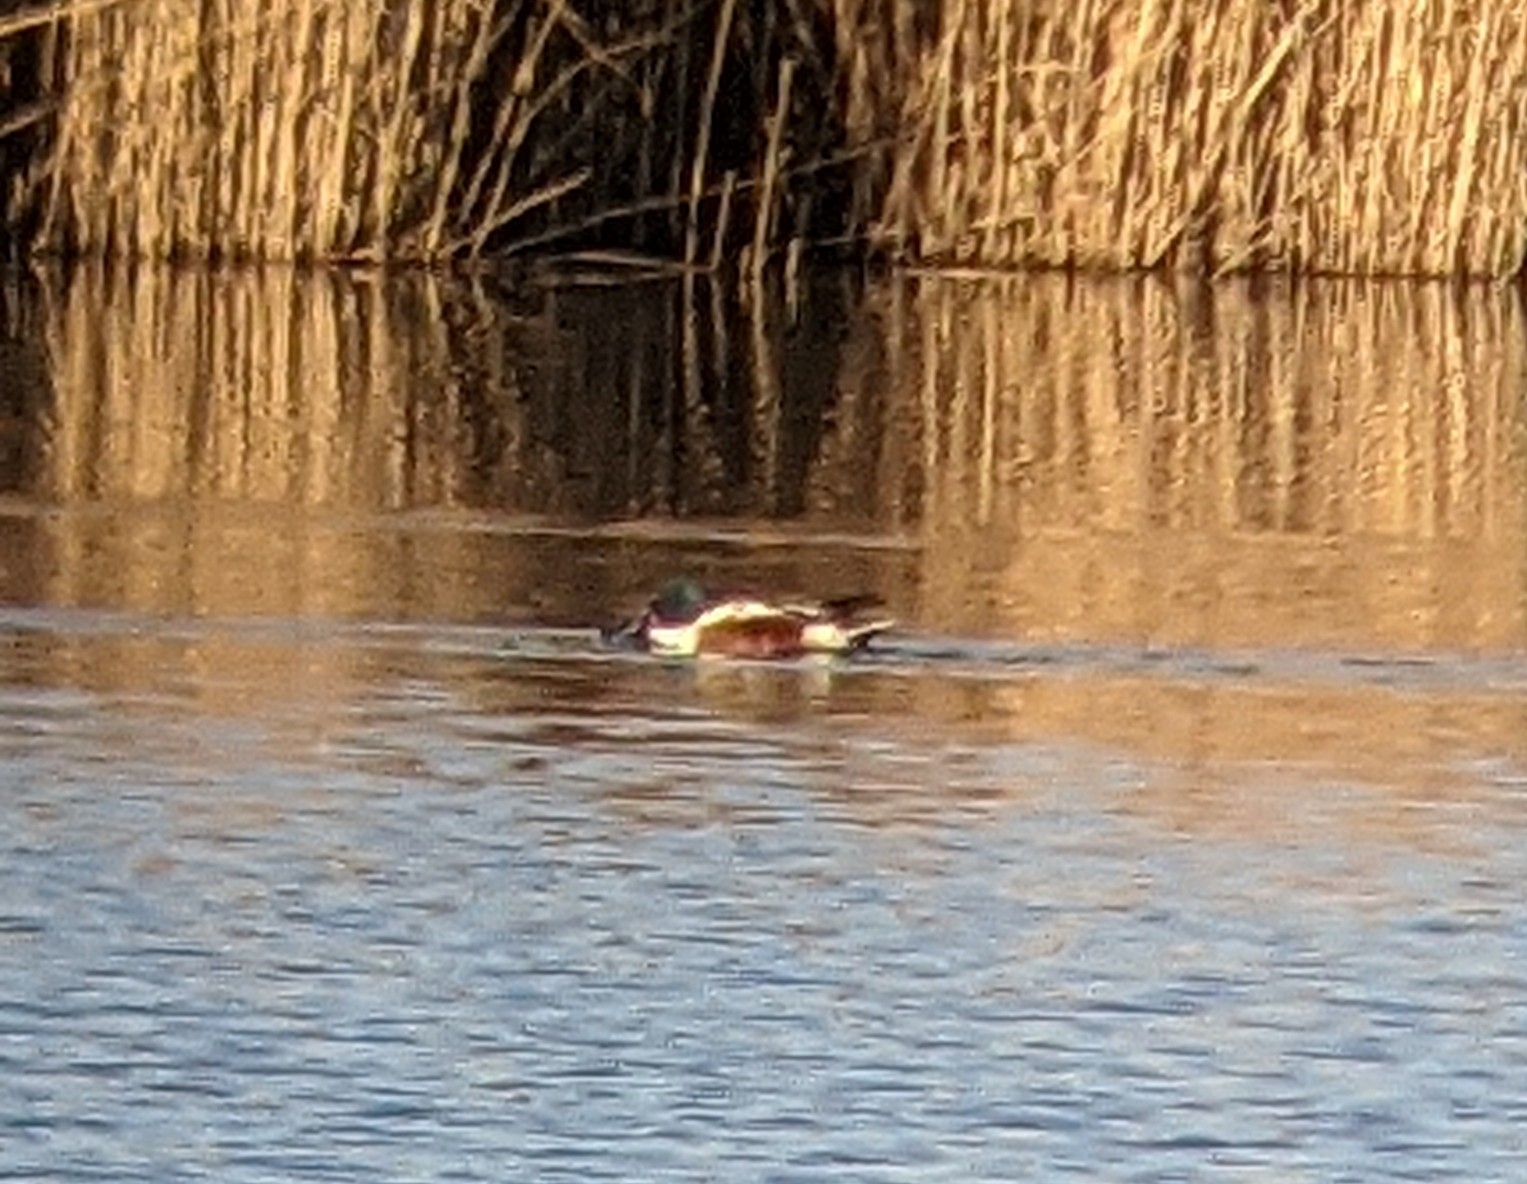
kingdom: Animalia
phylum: Chordata
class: Aves
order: Anseriformes
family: Anatidae
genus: Spatula
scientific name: Spatula clypeata
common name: Northern shoveler
